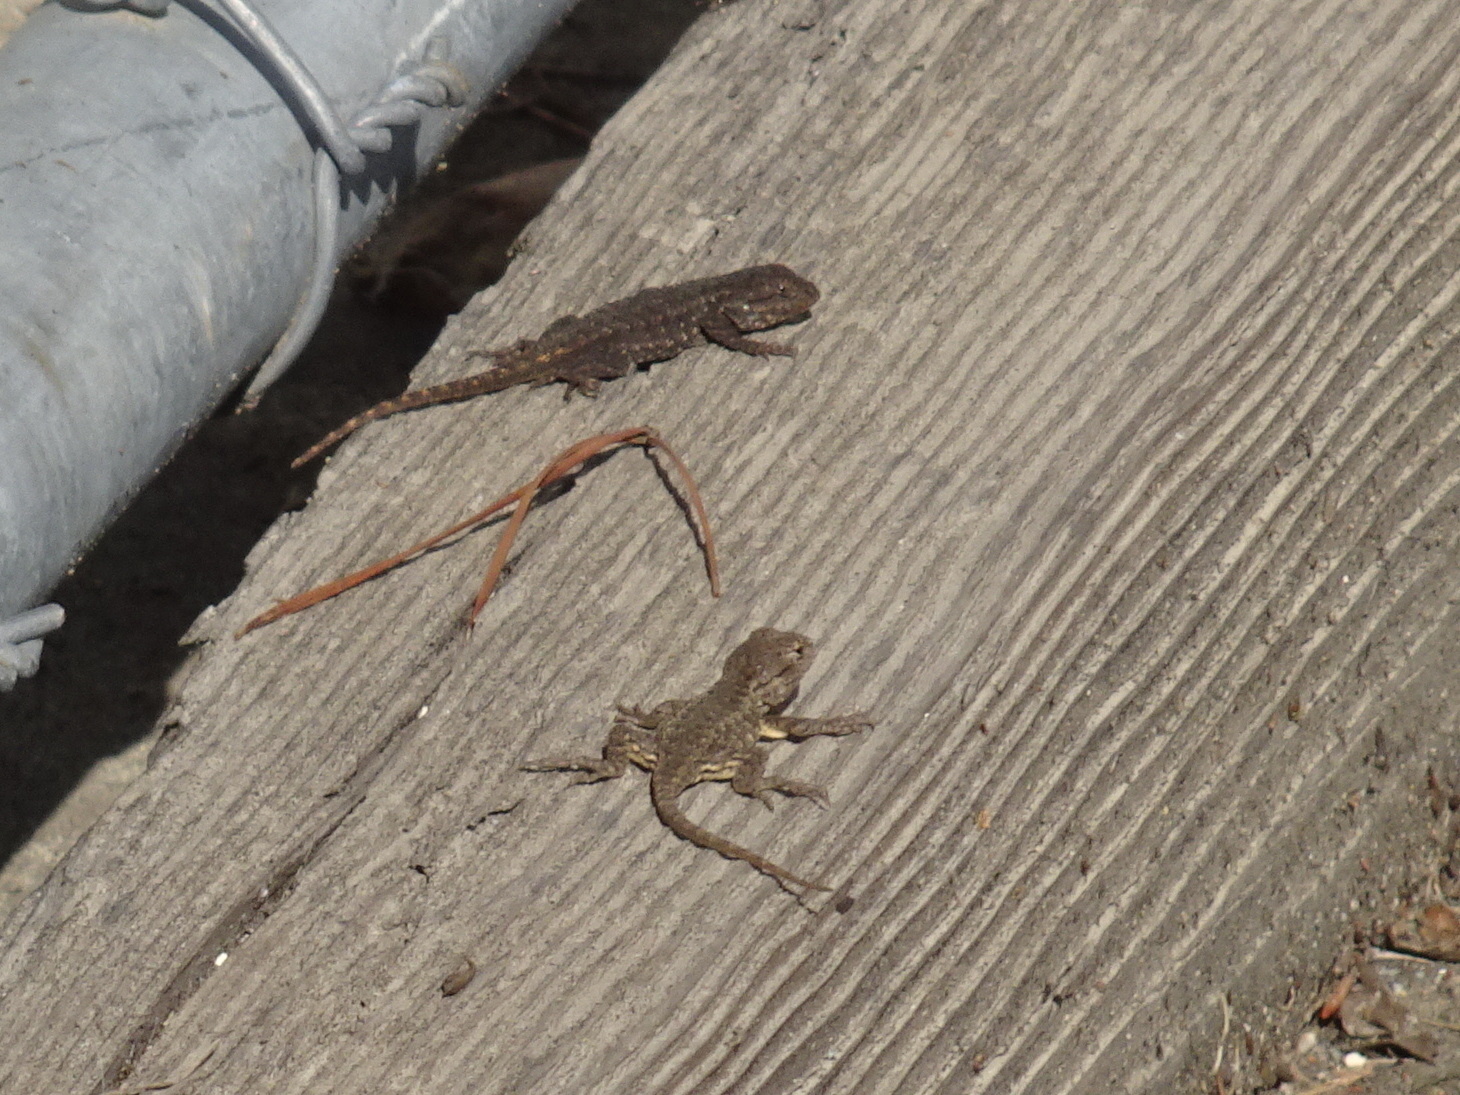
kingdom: Animalia
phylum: Chordata
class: Squamata
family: Phrynosomatidae
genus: Sceloporus
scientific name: Sceloporus occidentalis
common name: Western fence lizard
